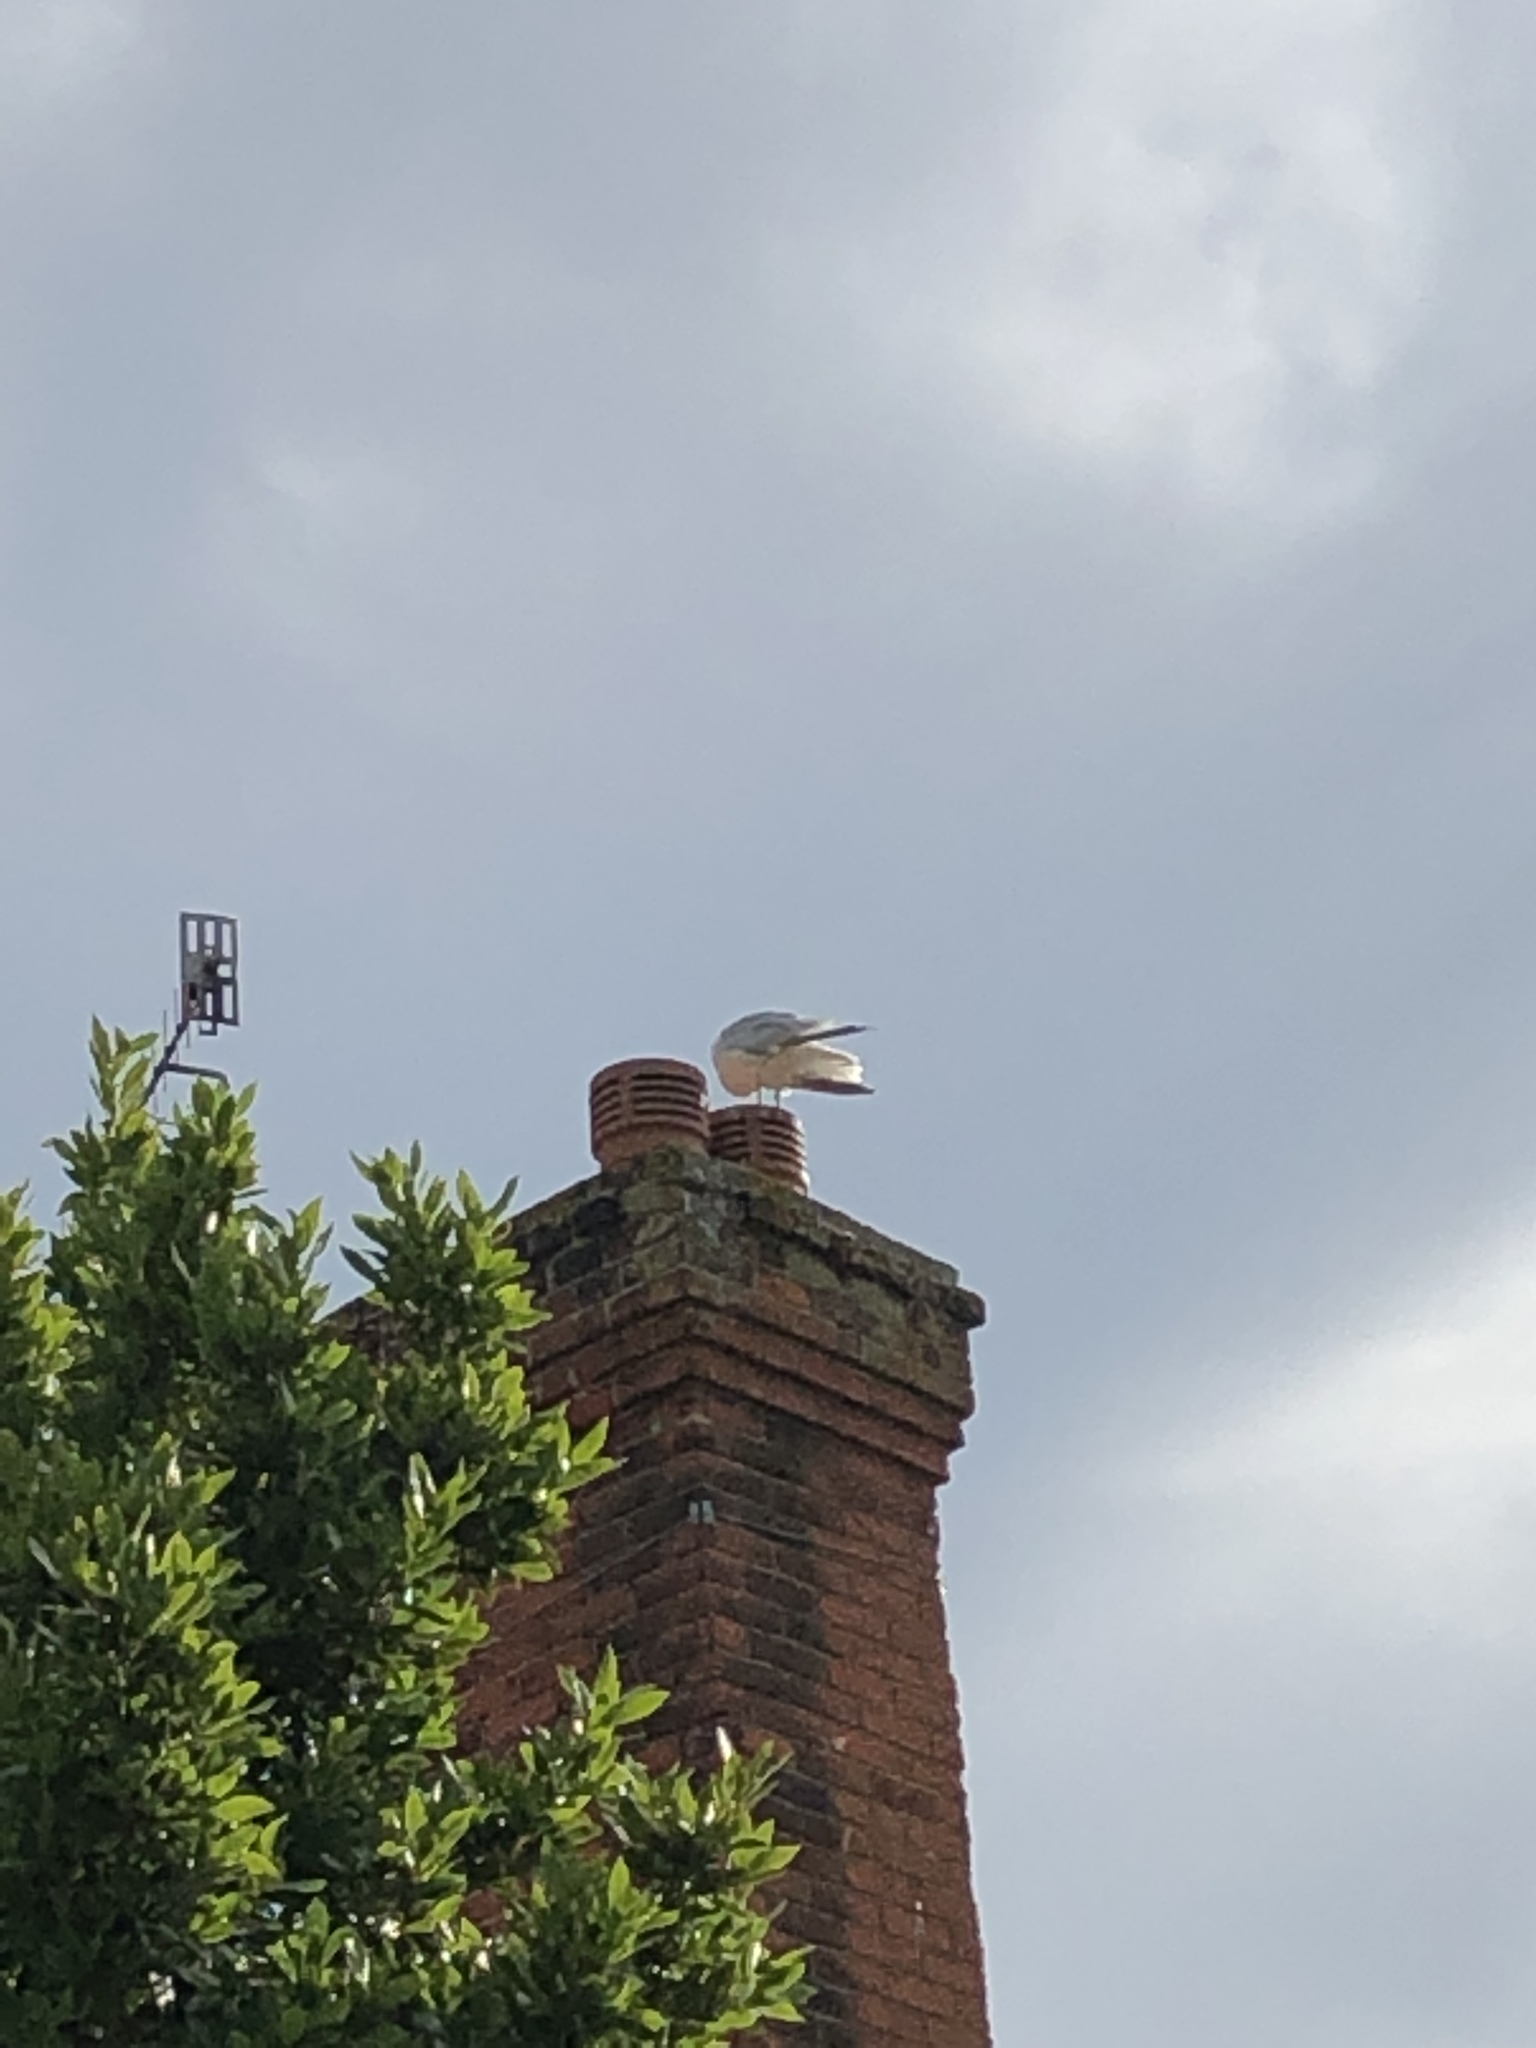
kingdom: Animalia
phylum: Chordata
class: Aves
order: Charadriiformes
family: Laridae
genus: Larus
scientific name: Larus argentatus
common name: Herring gull
